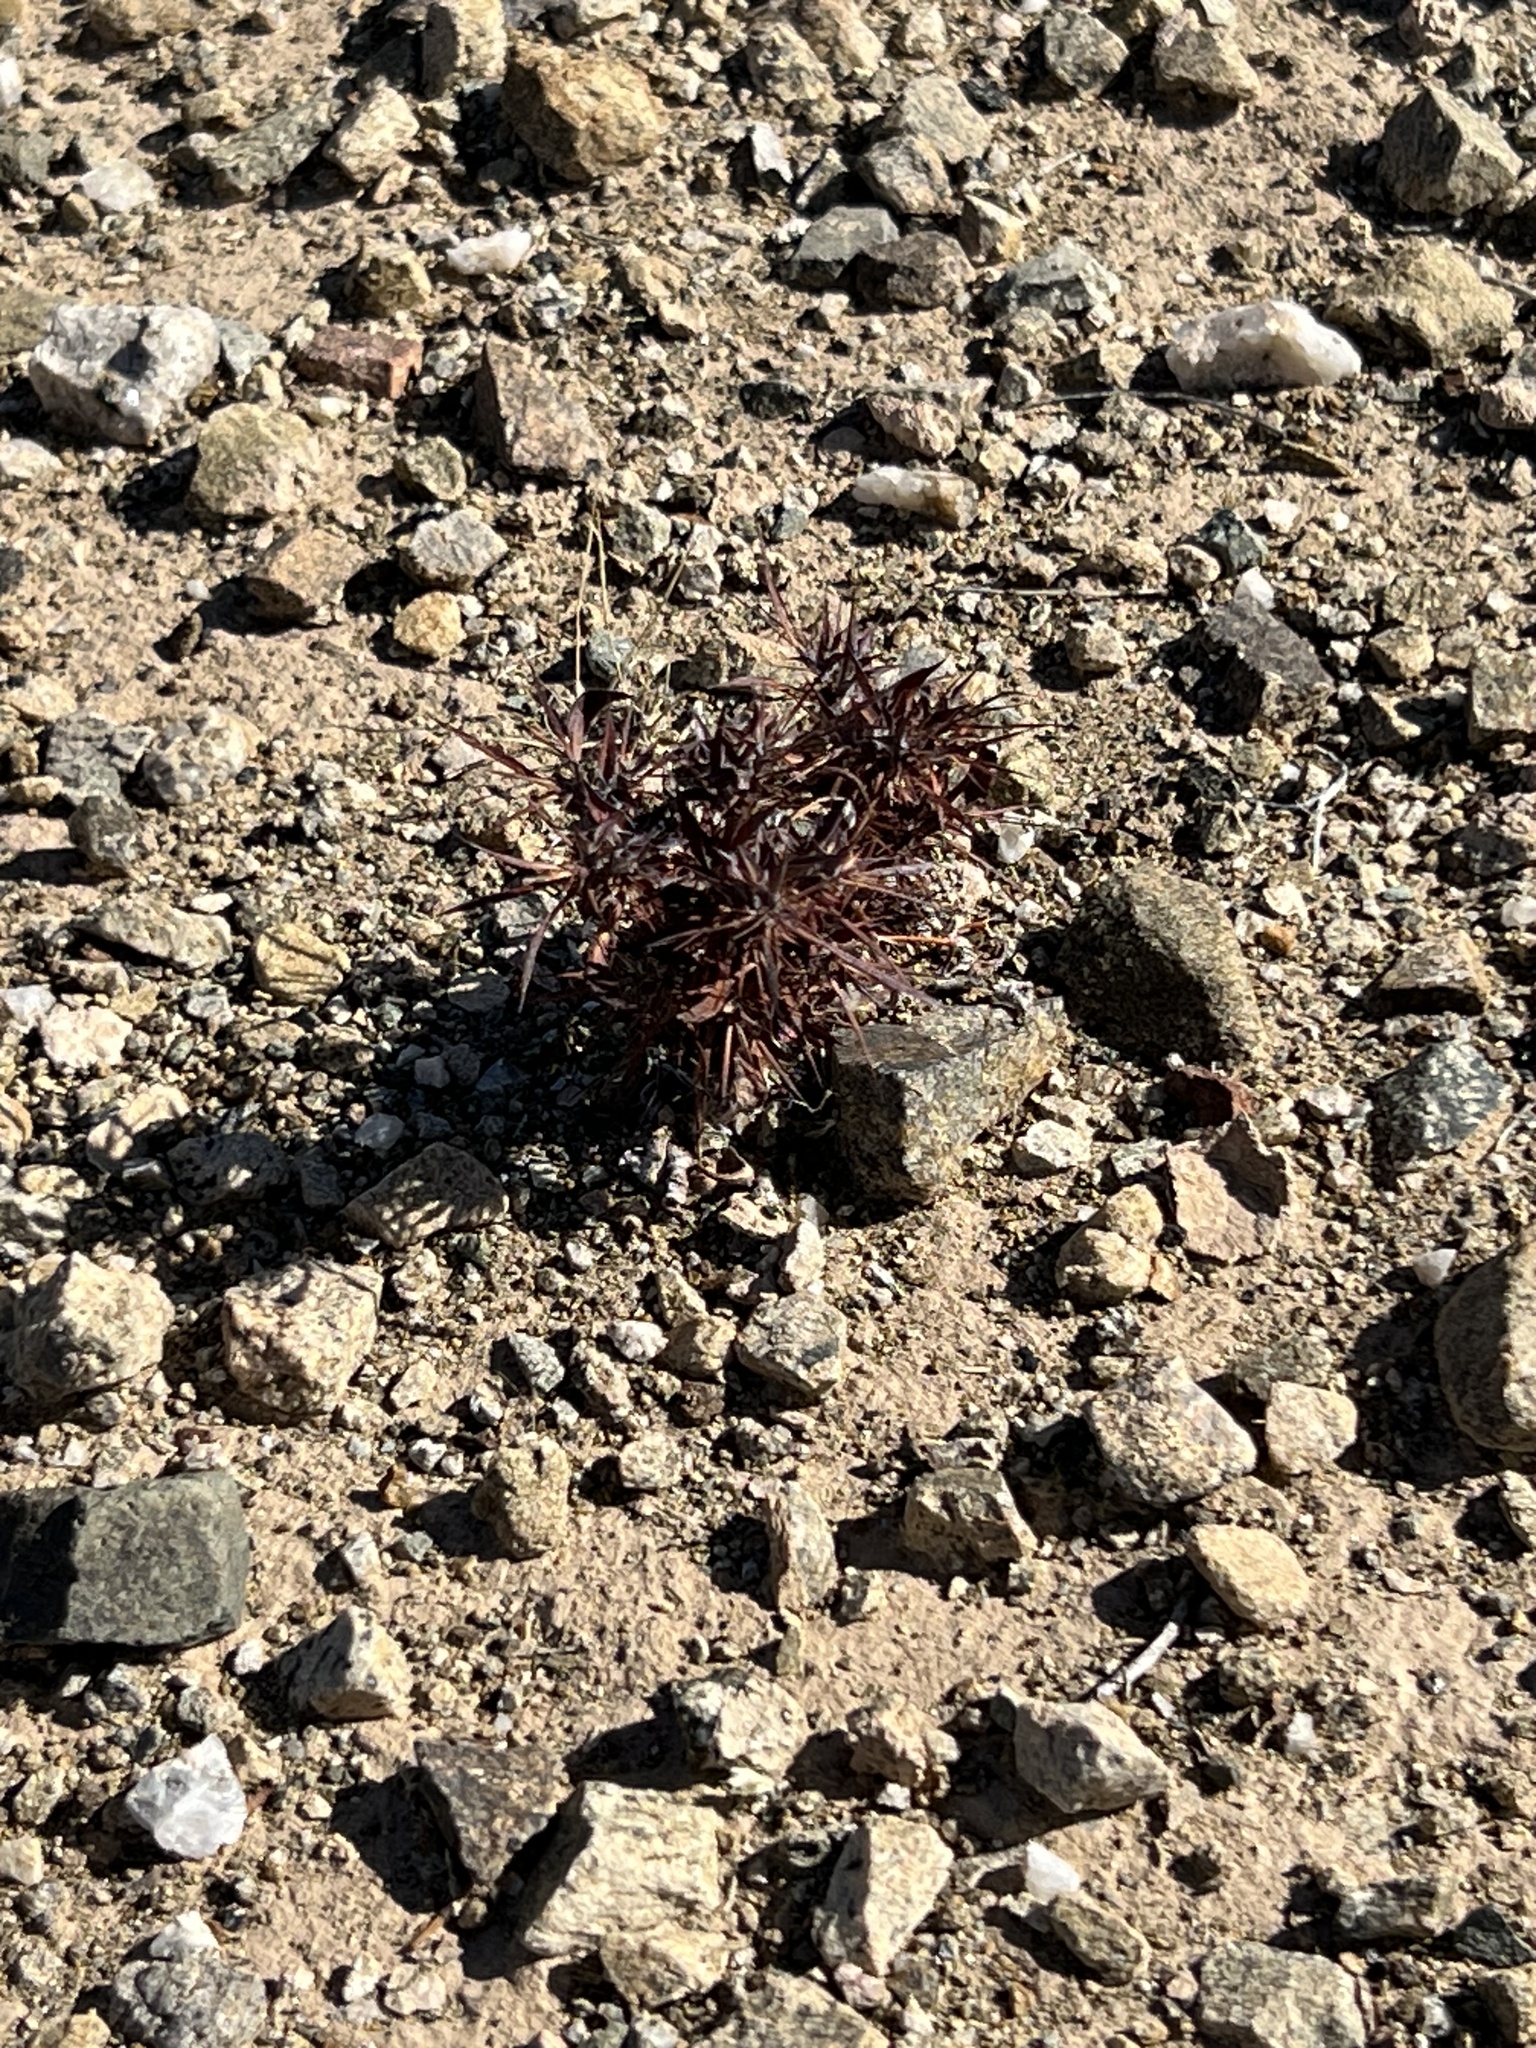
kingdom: Plantae
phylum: Tracheophyta
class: Magnoliopsida
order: Caryophyllales
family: Polygonaceae
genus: Chorizanthe
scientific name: Chorizanthe rigida
